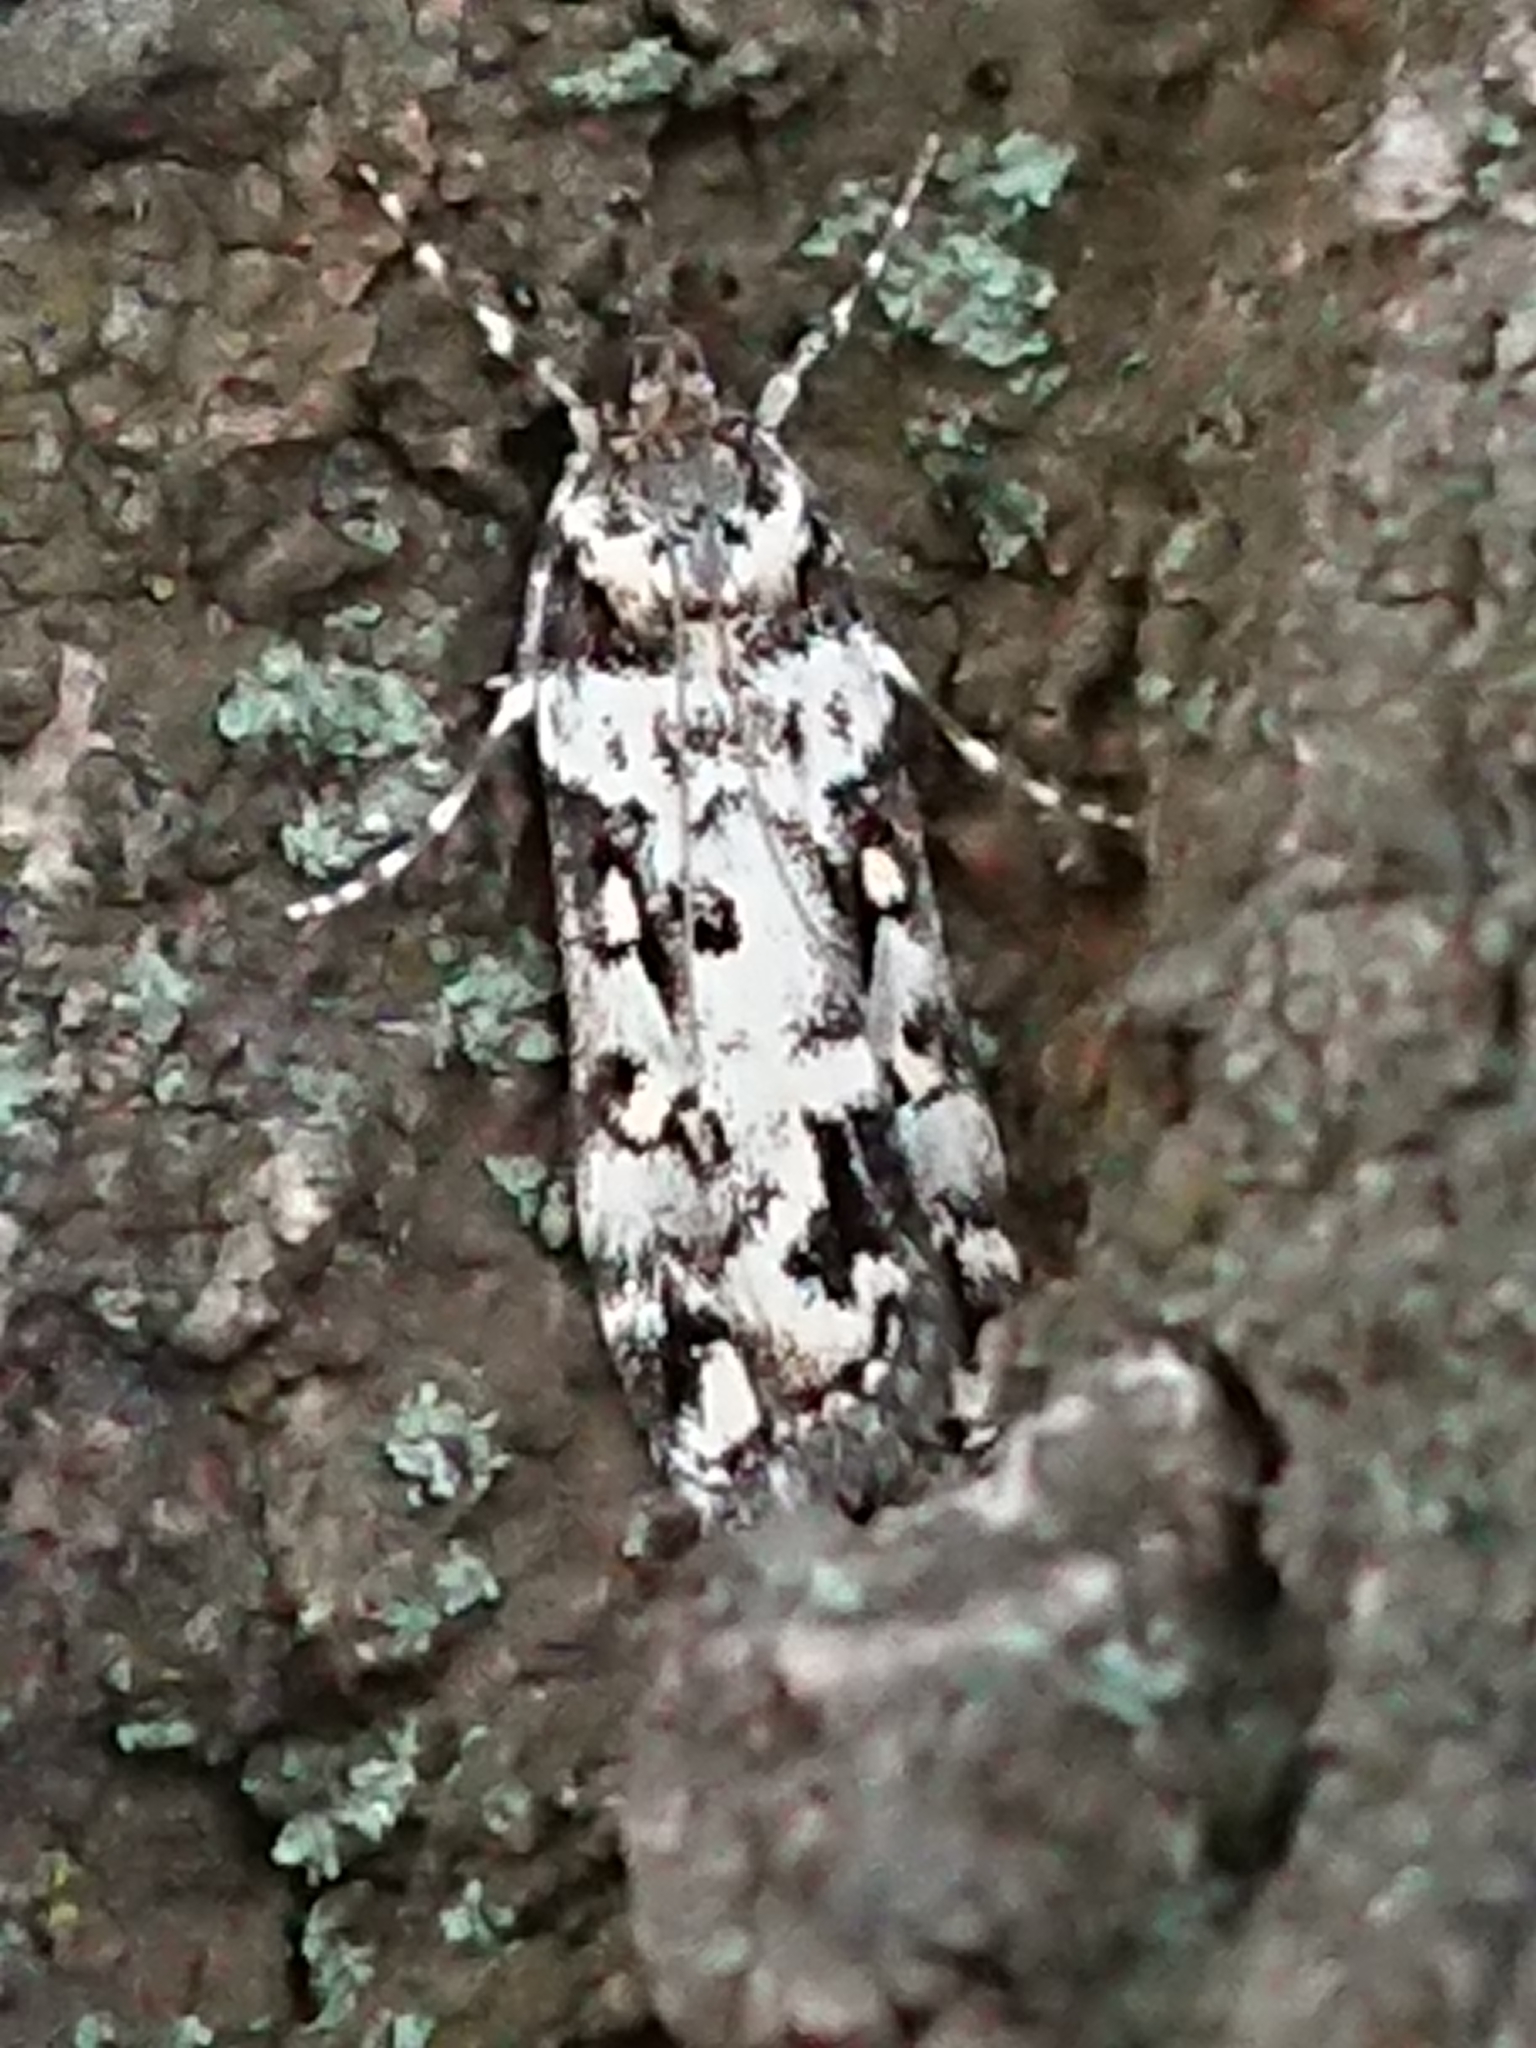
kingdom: Animalia
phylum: Arthropoda
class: Insecta
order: Lepidoptera
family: Crambidae
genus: Eudonia
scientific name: Eudonia diphtheralis
